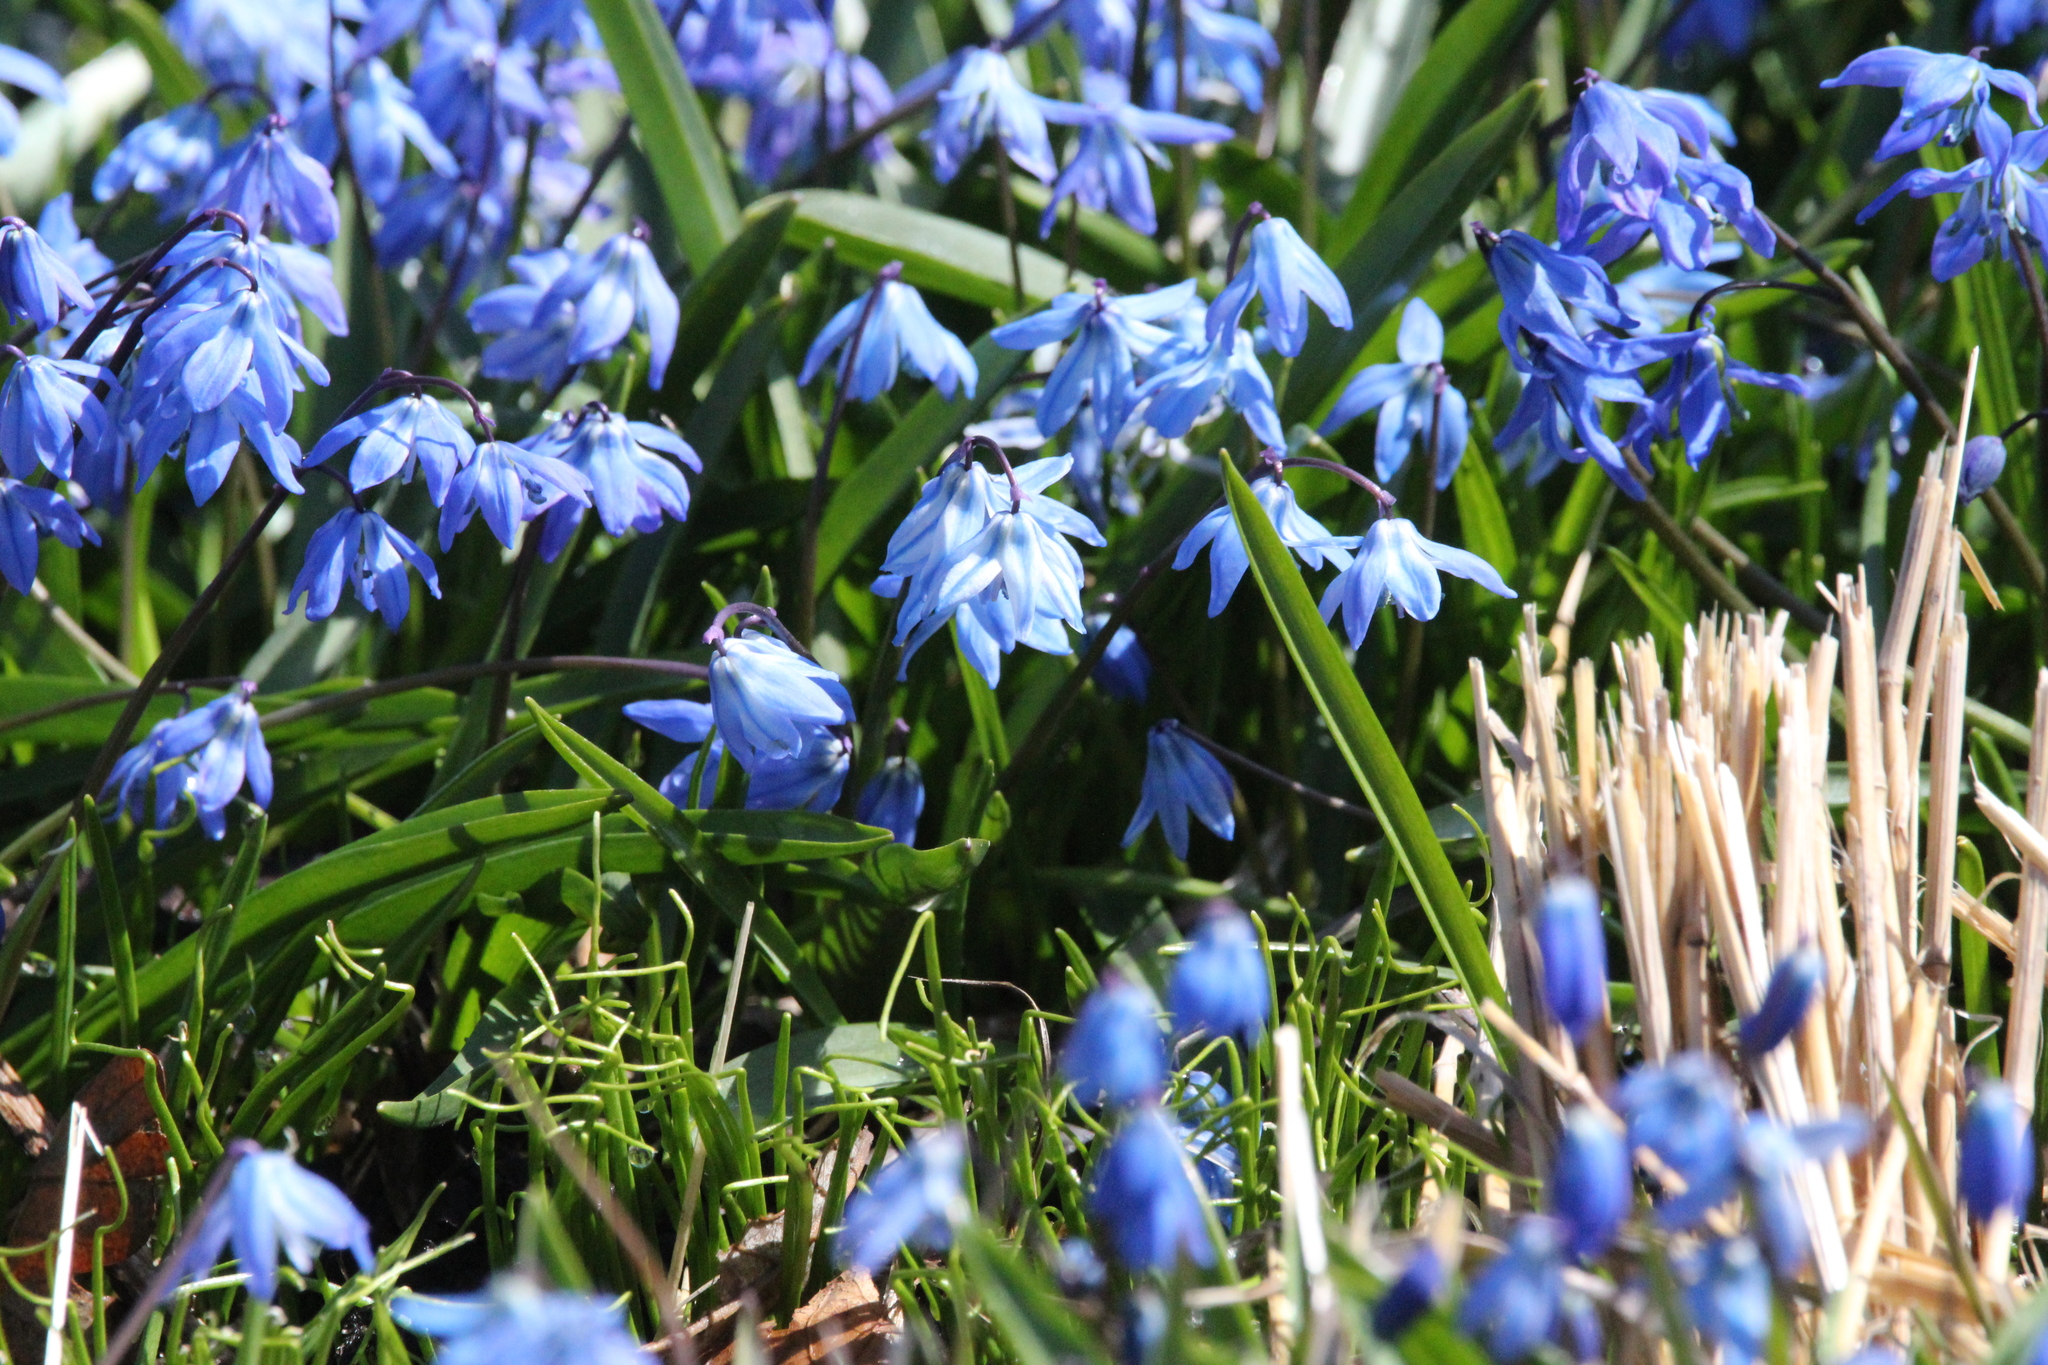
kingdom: Plantae
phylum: Tracheophyta
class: Liliopsida
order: Asparagales
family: Asparagaceae
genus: Scilla
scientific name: Scilla siberica
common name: Siberian squill
